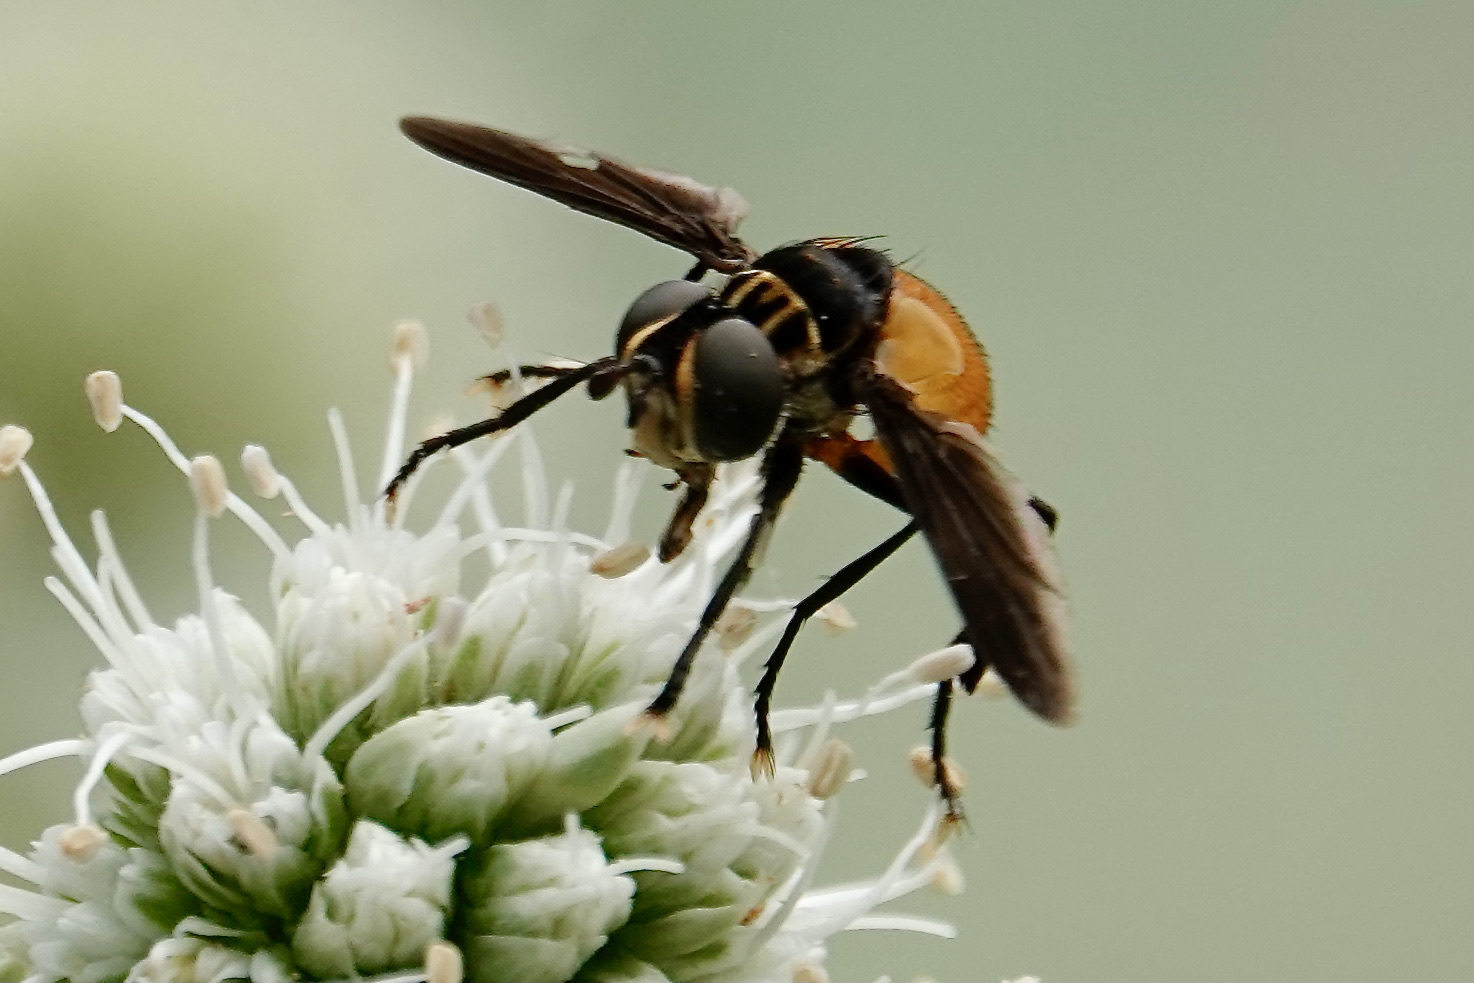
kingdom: Animalia
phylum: Arthropoda
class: Insecta
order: Diptera
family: Tachinidae
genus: Trichopoda
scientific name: Trichopoda pennipes
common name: Tachinid fly
